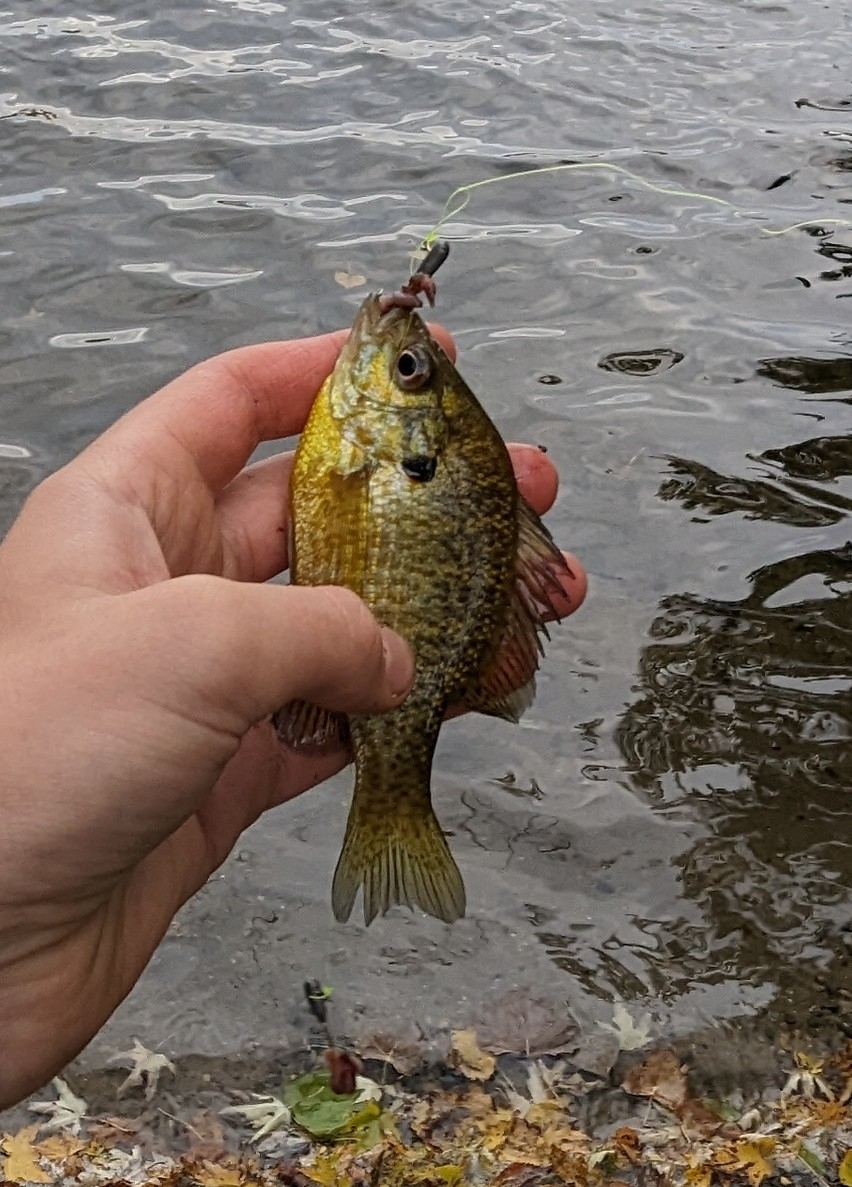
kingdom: Animalia
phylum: Chordata
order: Perciformes
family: Centrarchidae
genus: Lepomis
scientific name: Lepomis
